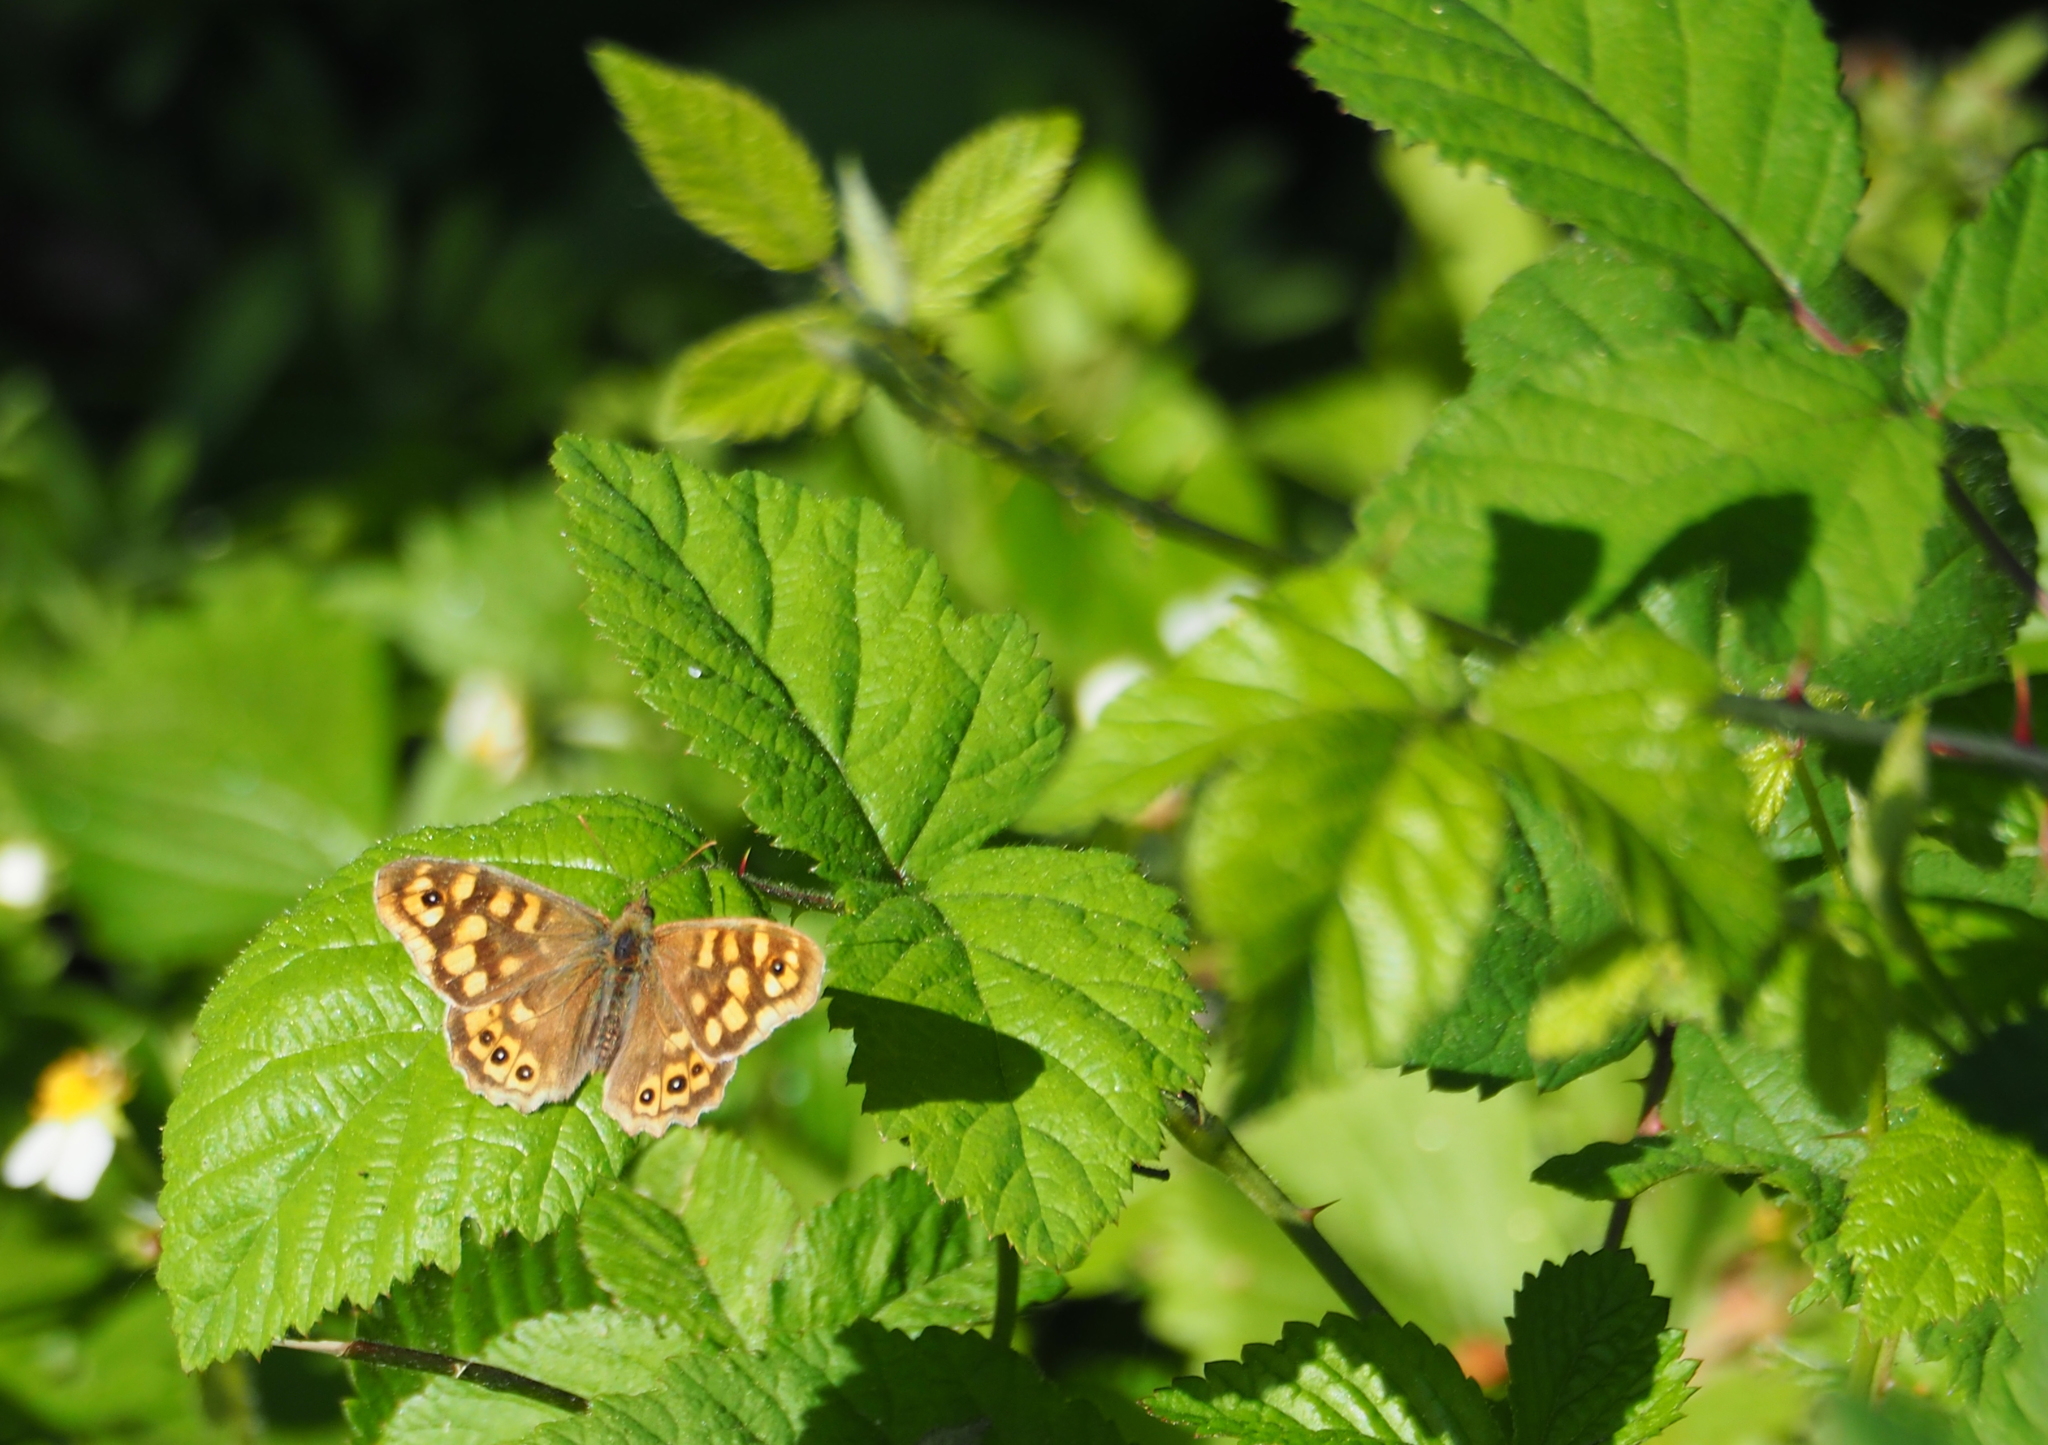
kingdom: Animalia
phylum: Arthropoda
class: Insecta
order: Lepidoptera
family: Nymphalidae
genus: Pararge
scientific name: Pararge aegeria
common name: Speckled wood
